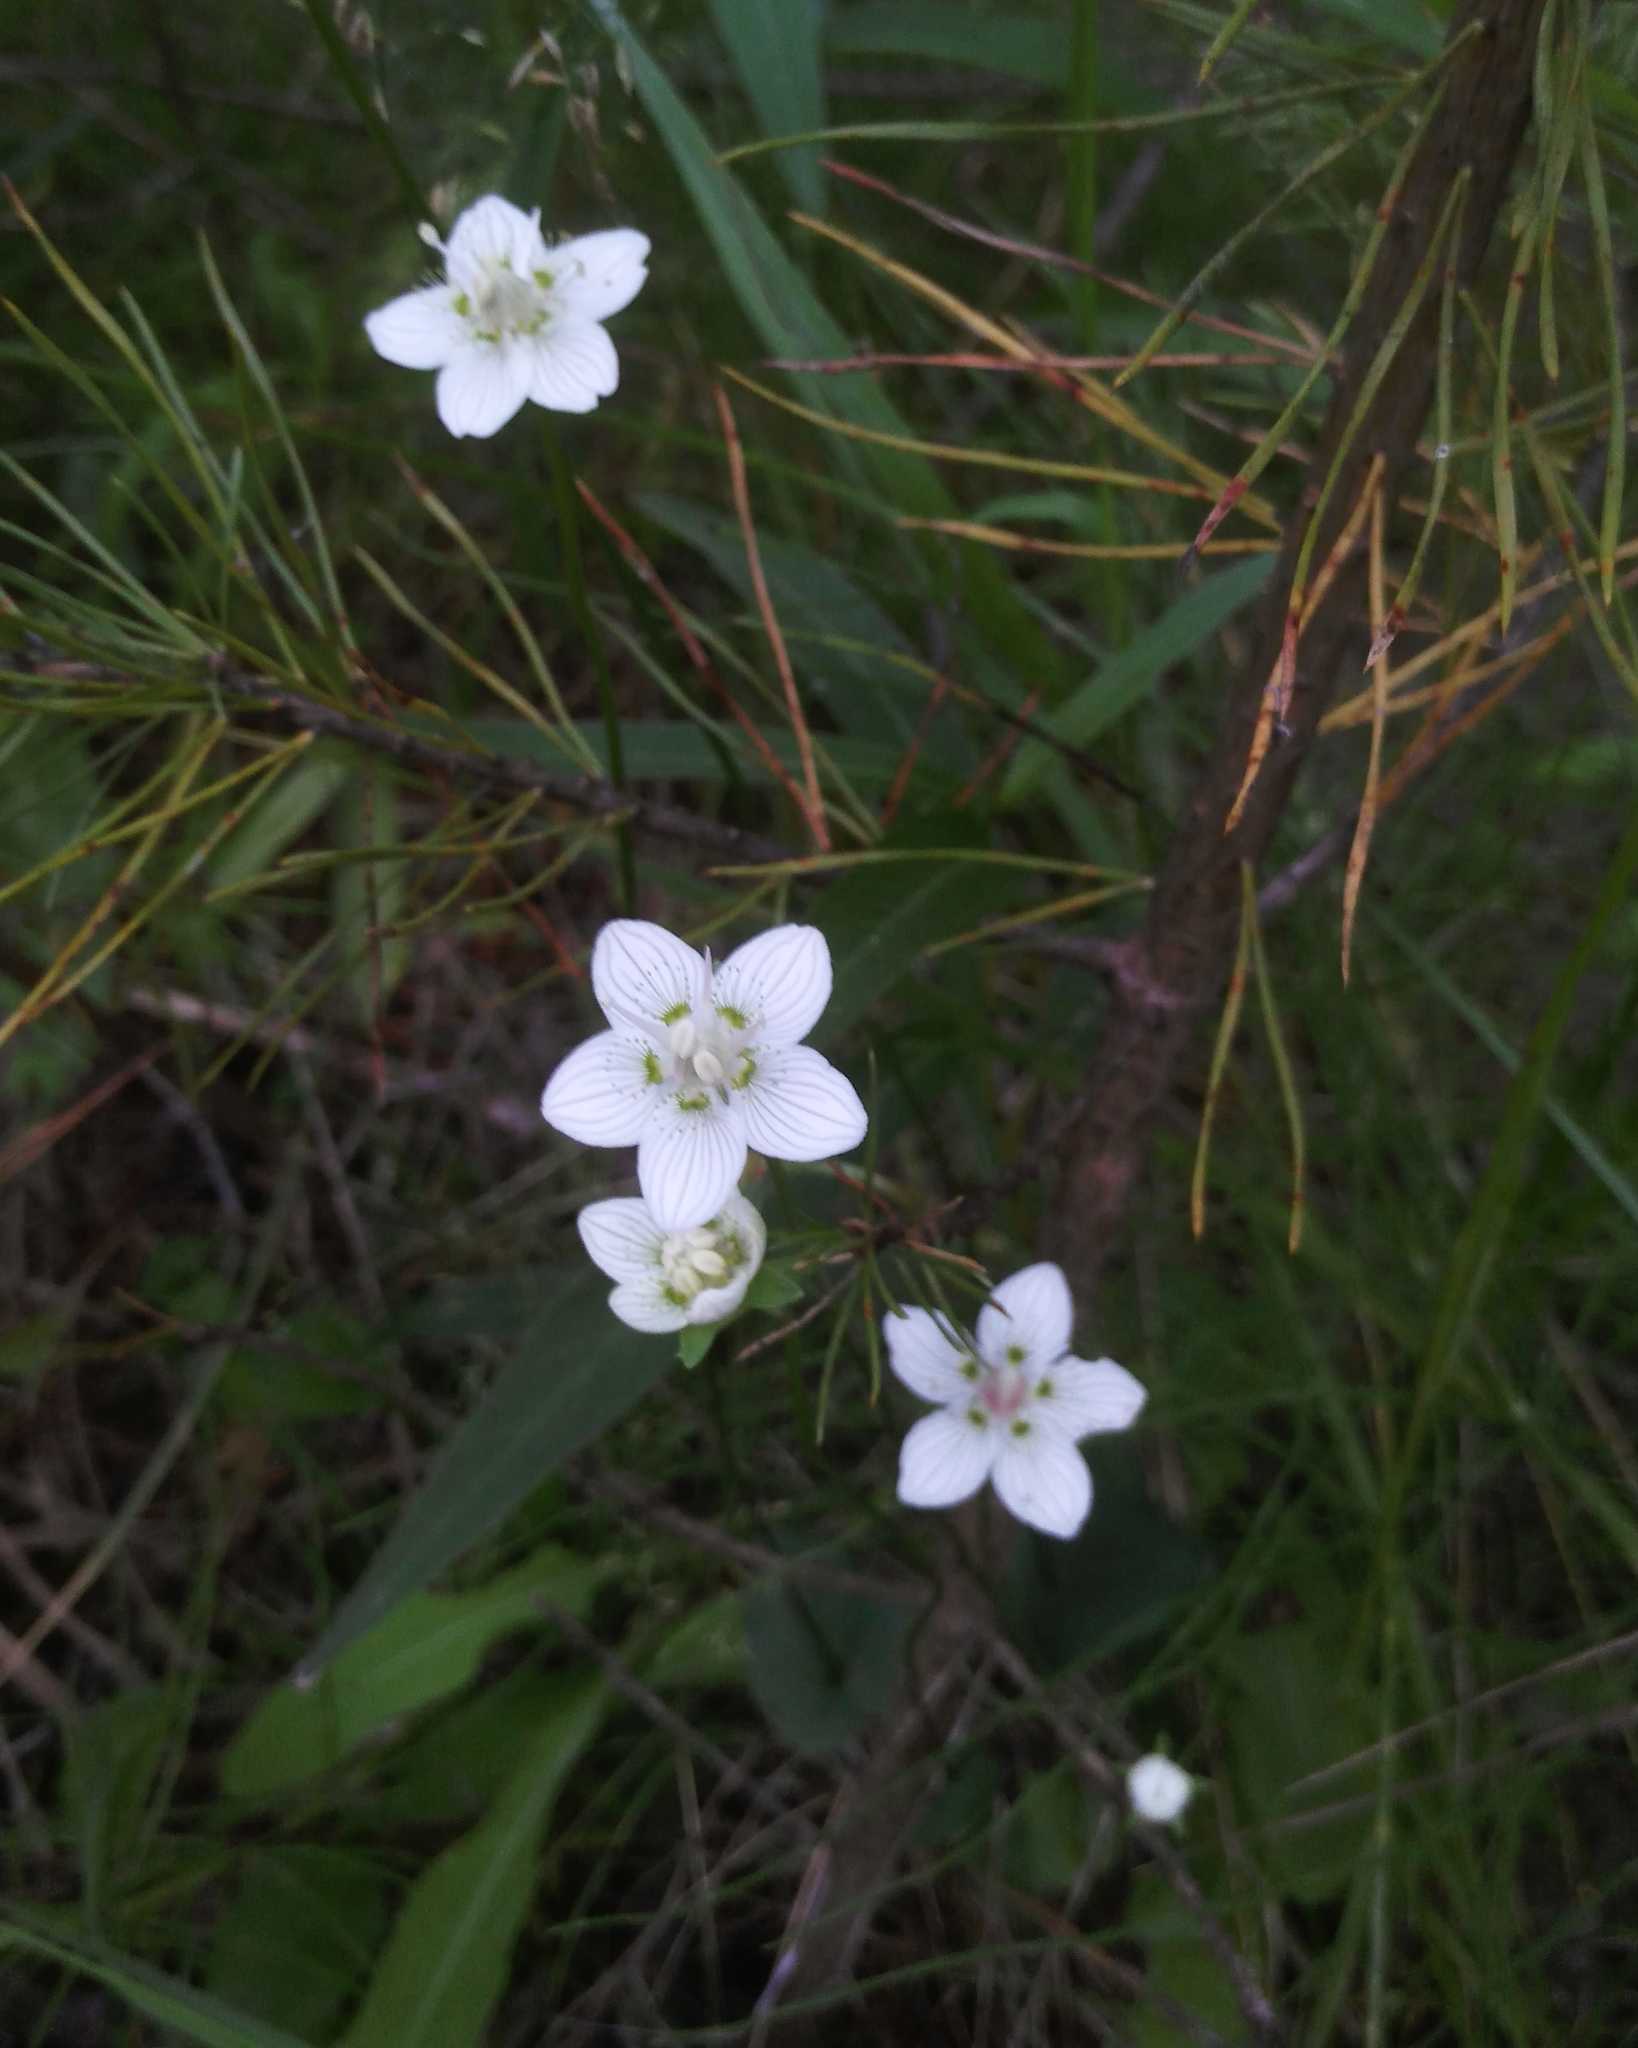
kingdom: Plantae
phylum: Tracheophyta
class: Magnoliopsida
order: Celastrales
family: Parnassiaceae
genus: Parnassia
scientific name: Parnassia palustris
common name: Grass-of-parnassus
